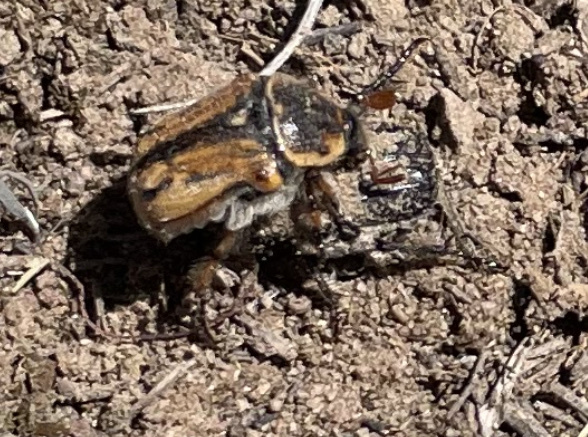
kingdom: Animalia
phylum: Arthropoda
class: Insecta
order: Coleoptera
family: Scarabaeidae
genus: Euphoria
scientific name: Euphoria kernii
